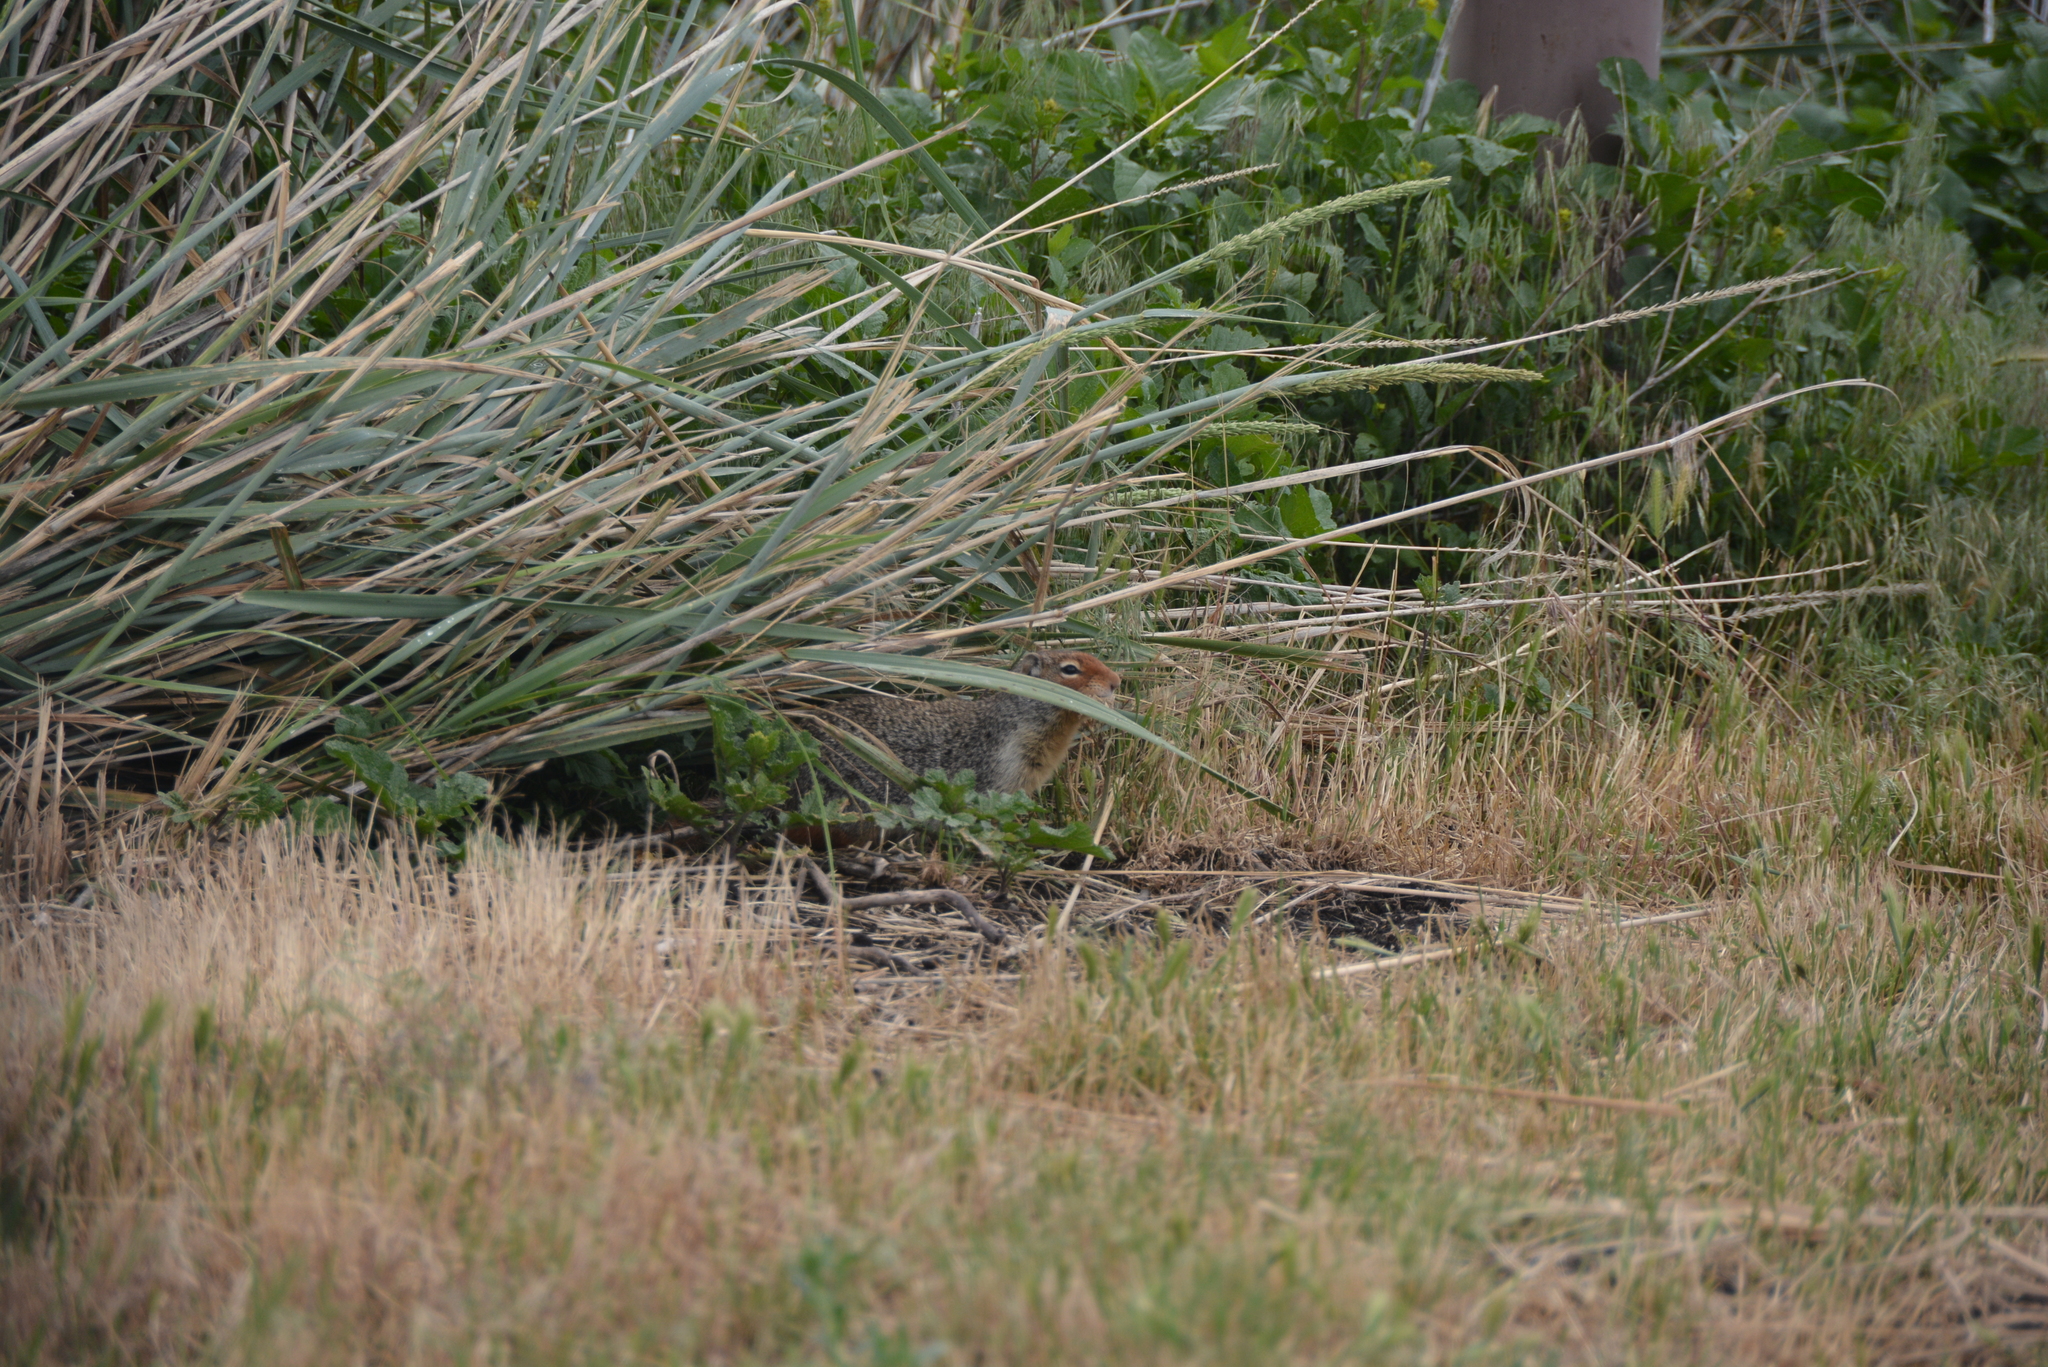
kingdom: Animalia
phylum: Chordata
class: Mammalia
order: Rodentia
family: Sciuridae
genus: Urocitellus
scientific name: Urocitellus columbianus
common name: Columbian ground squirrel
